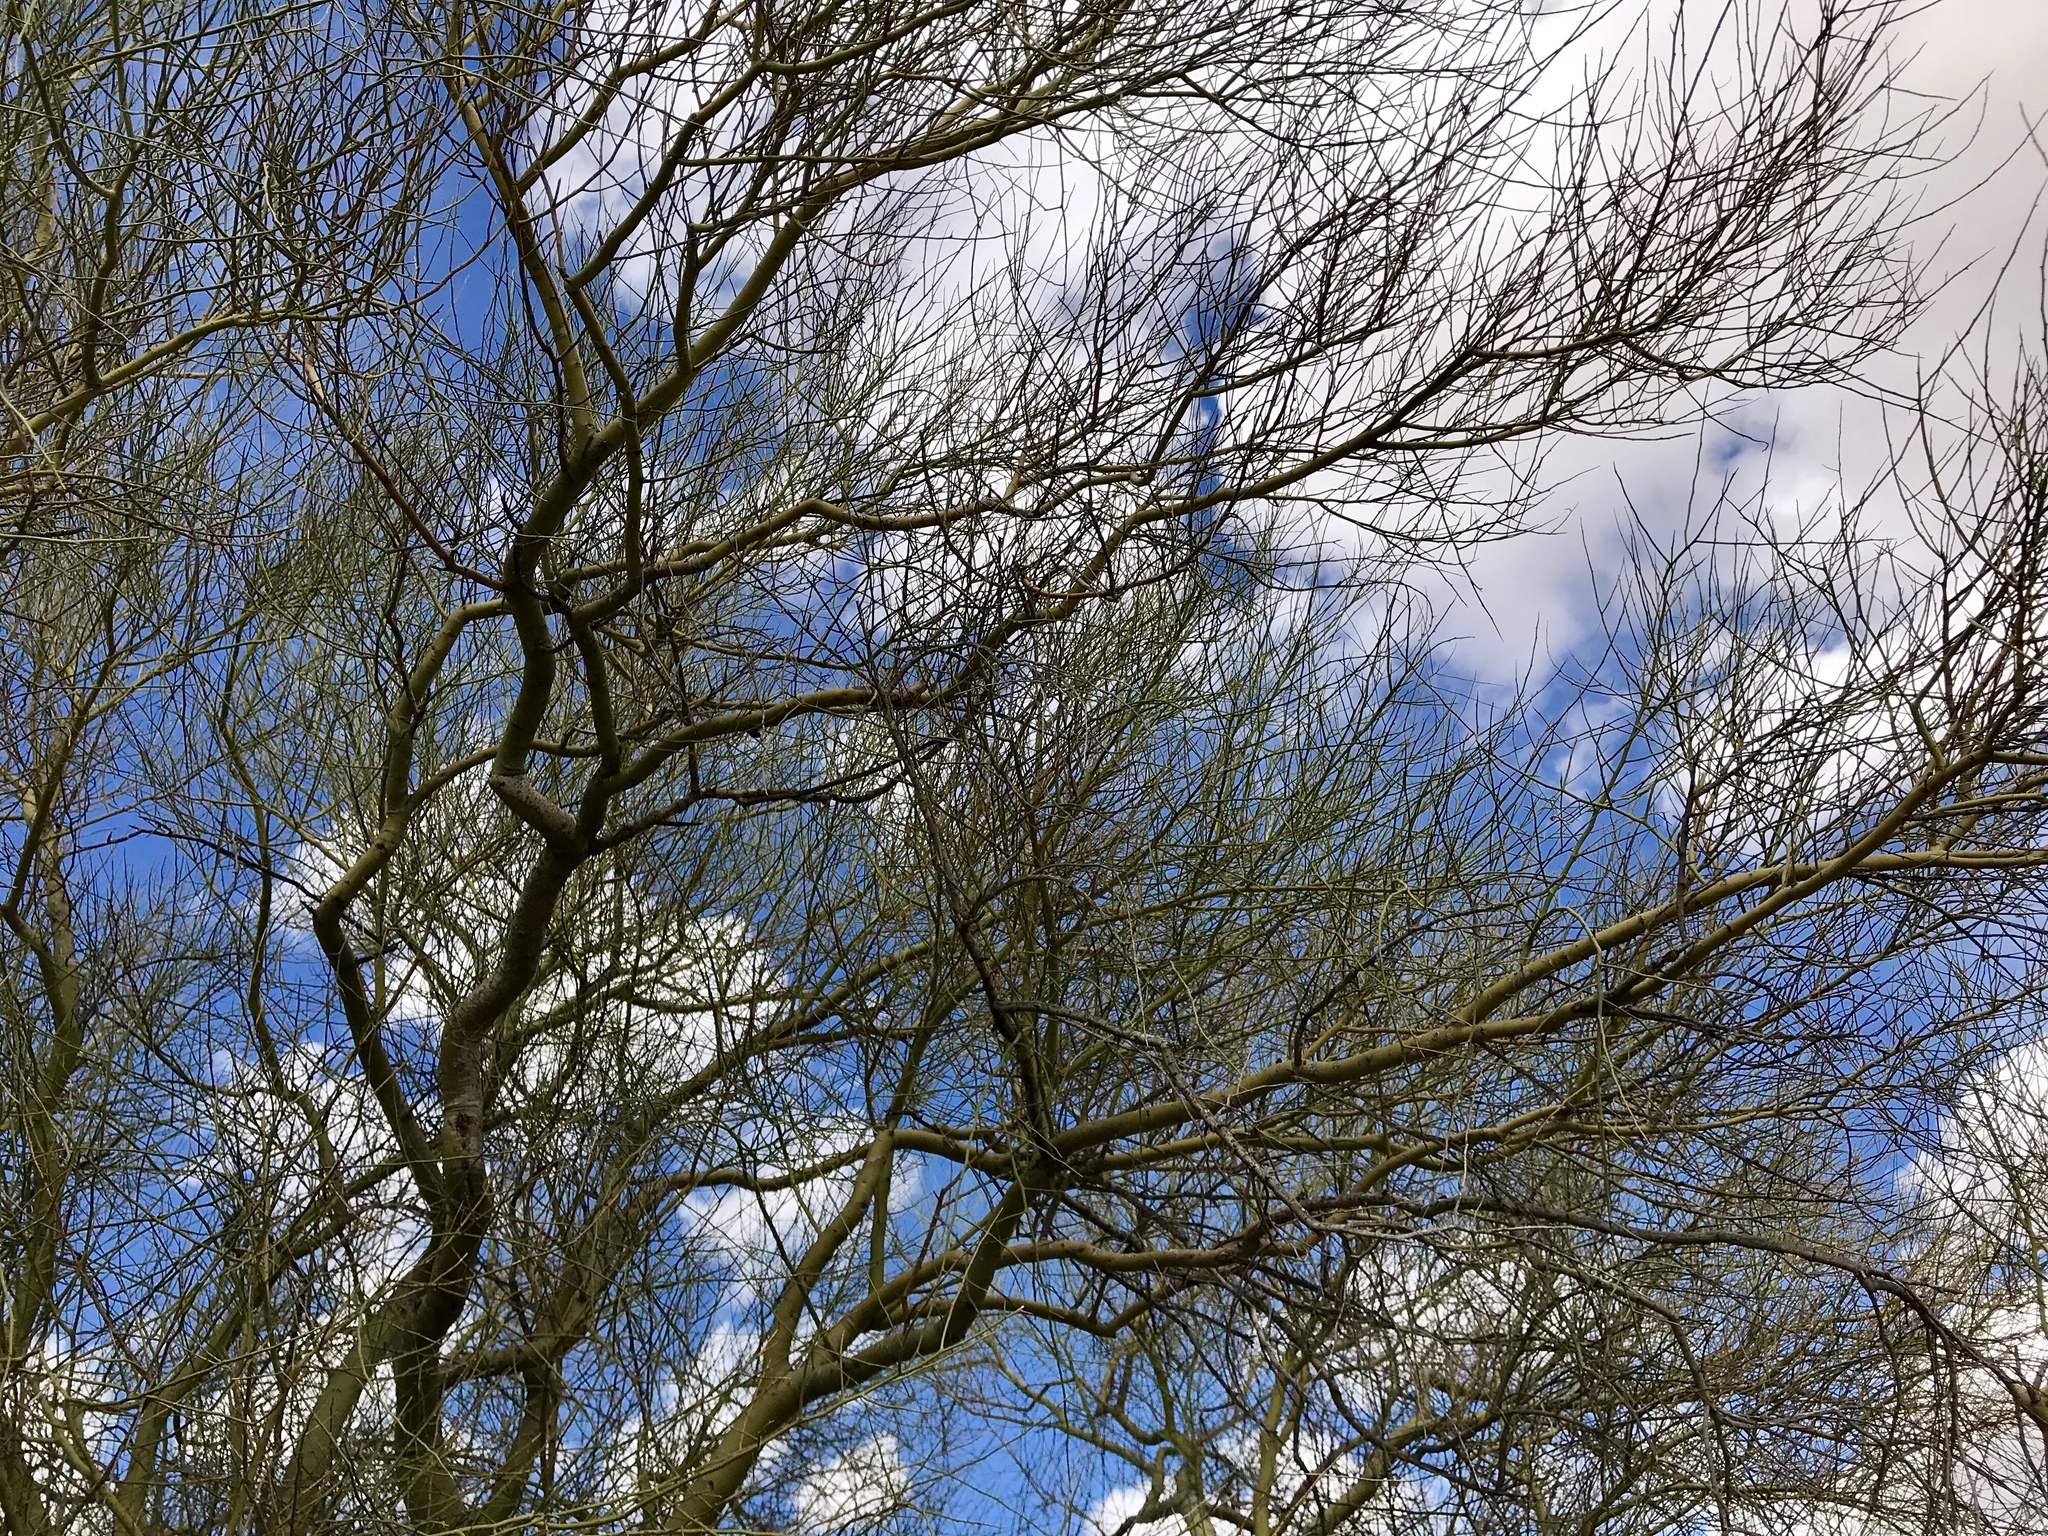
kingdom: Plantae
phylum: Tracheophyta
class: Magnoliopsida
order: Fabales
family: Fabaceae
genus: Parkinsonia
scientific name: Parkinsonia microphylla
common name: Yellow paloverde
